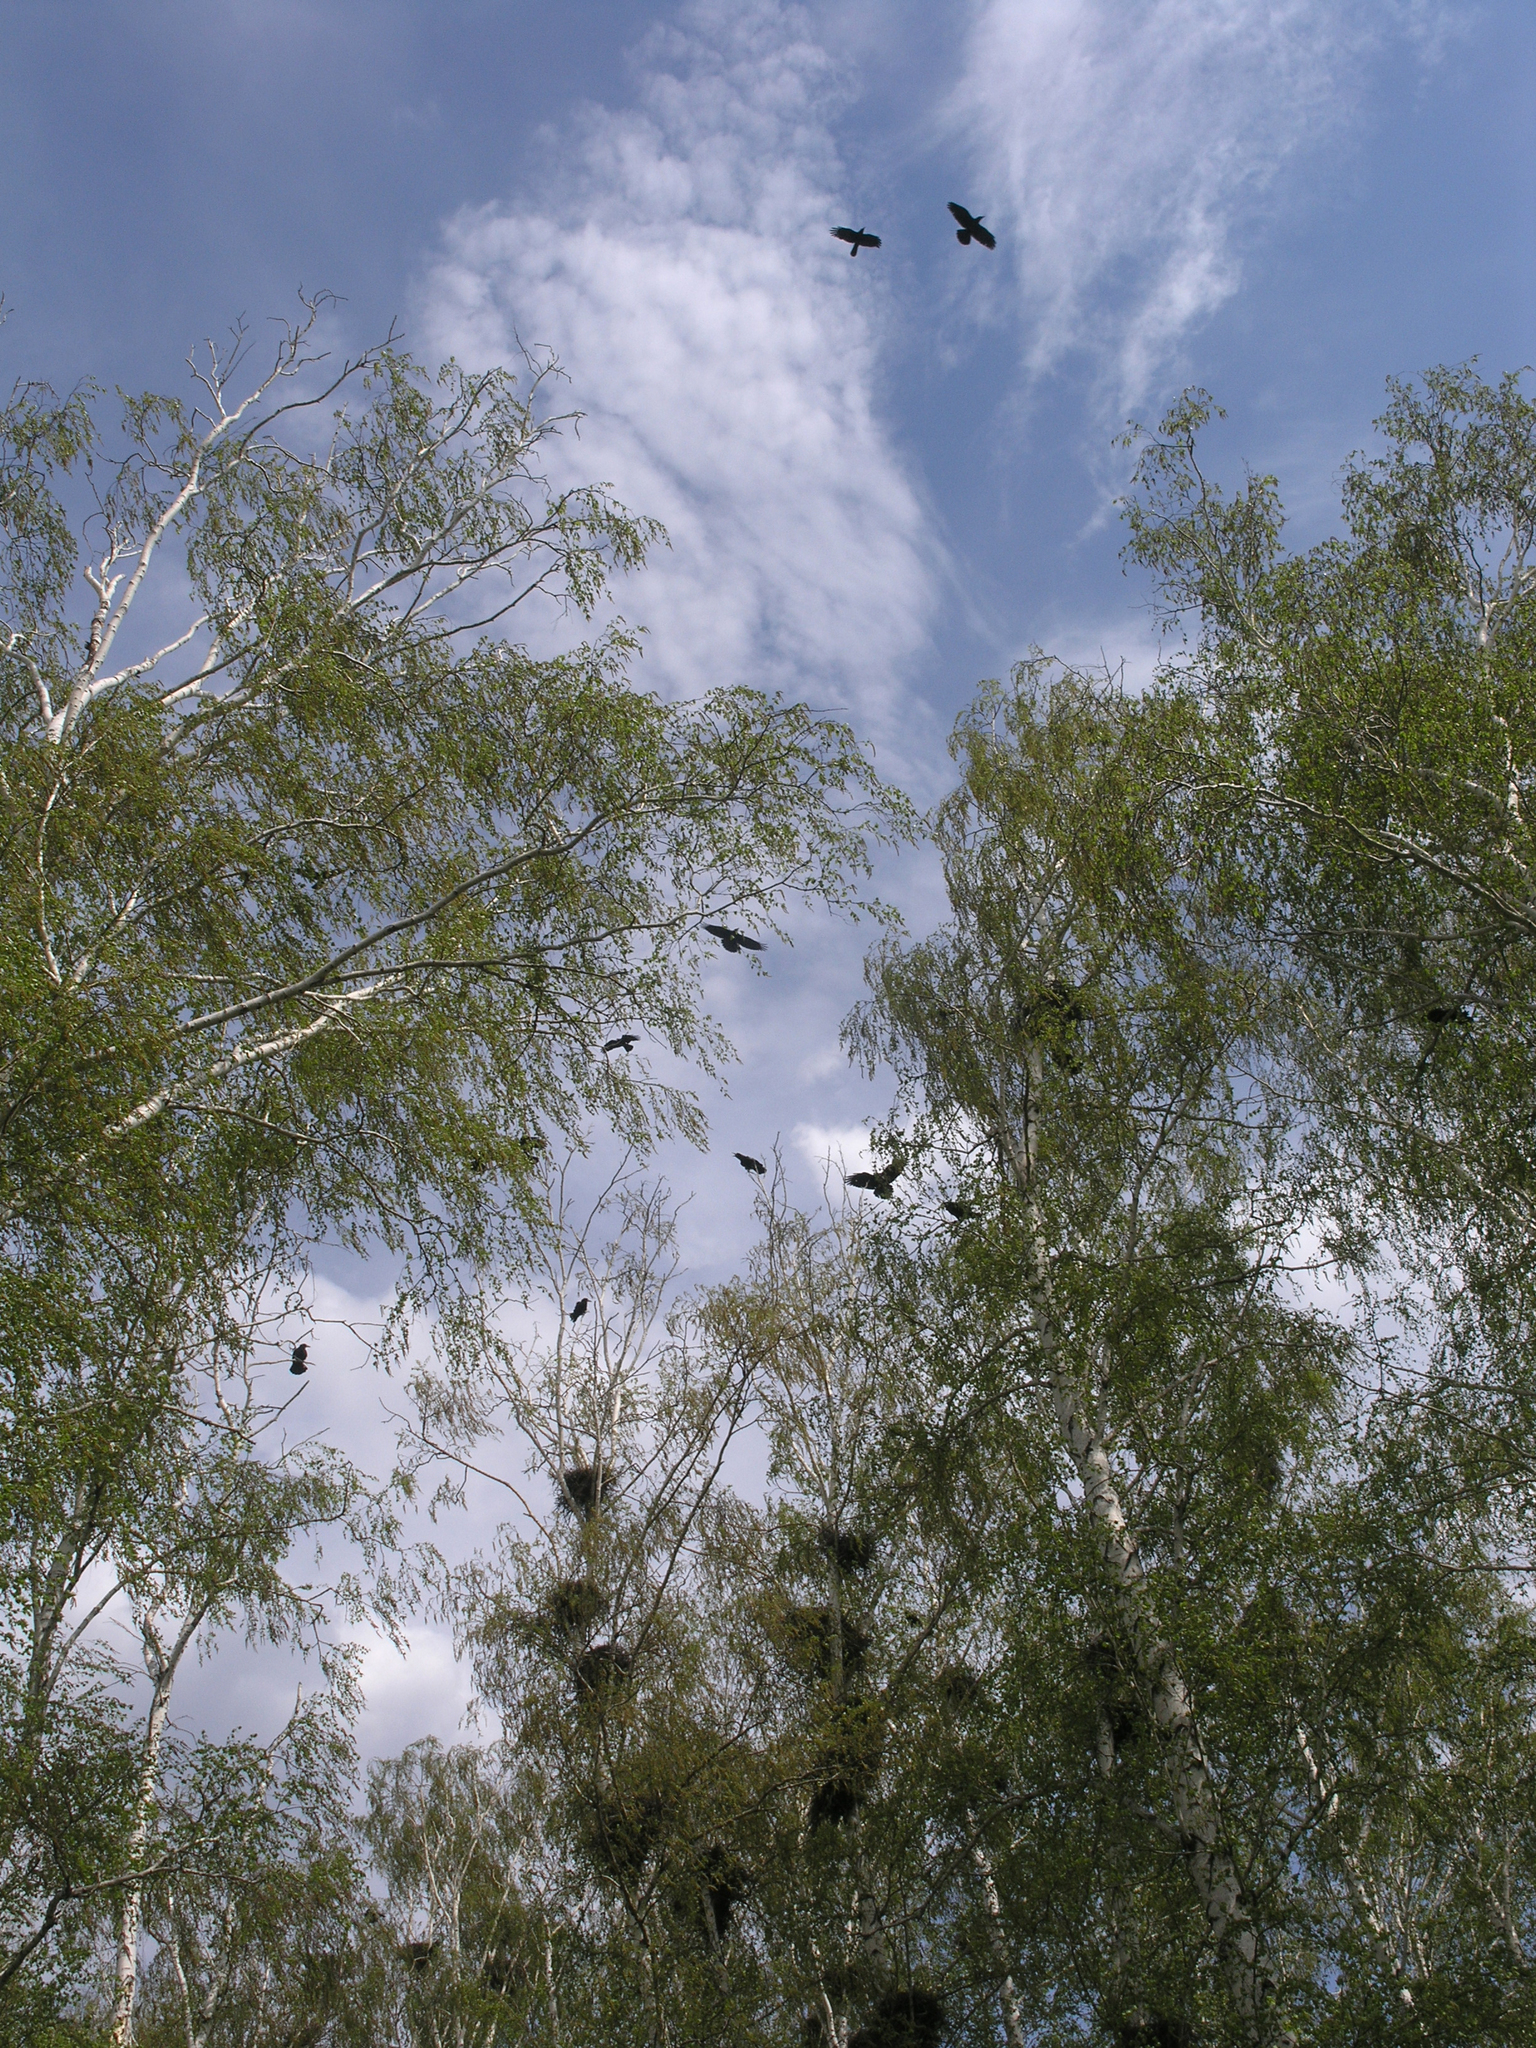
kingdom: Plantae
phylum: Tracheophyta
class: Magnoliopsida
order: Fagales
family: Betulaceae
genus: Betula
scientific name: Betula pendula
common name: Silver birch
